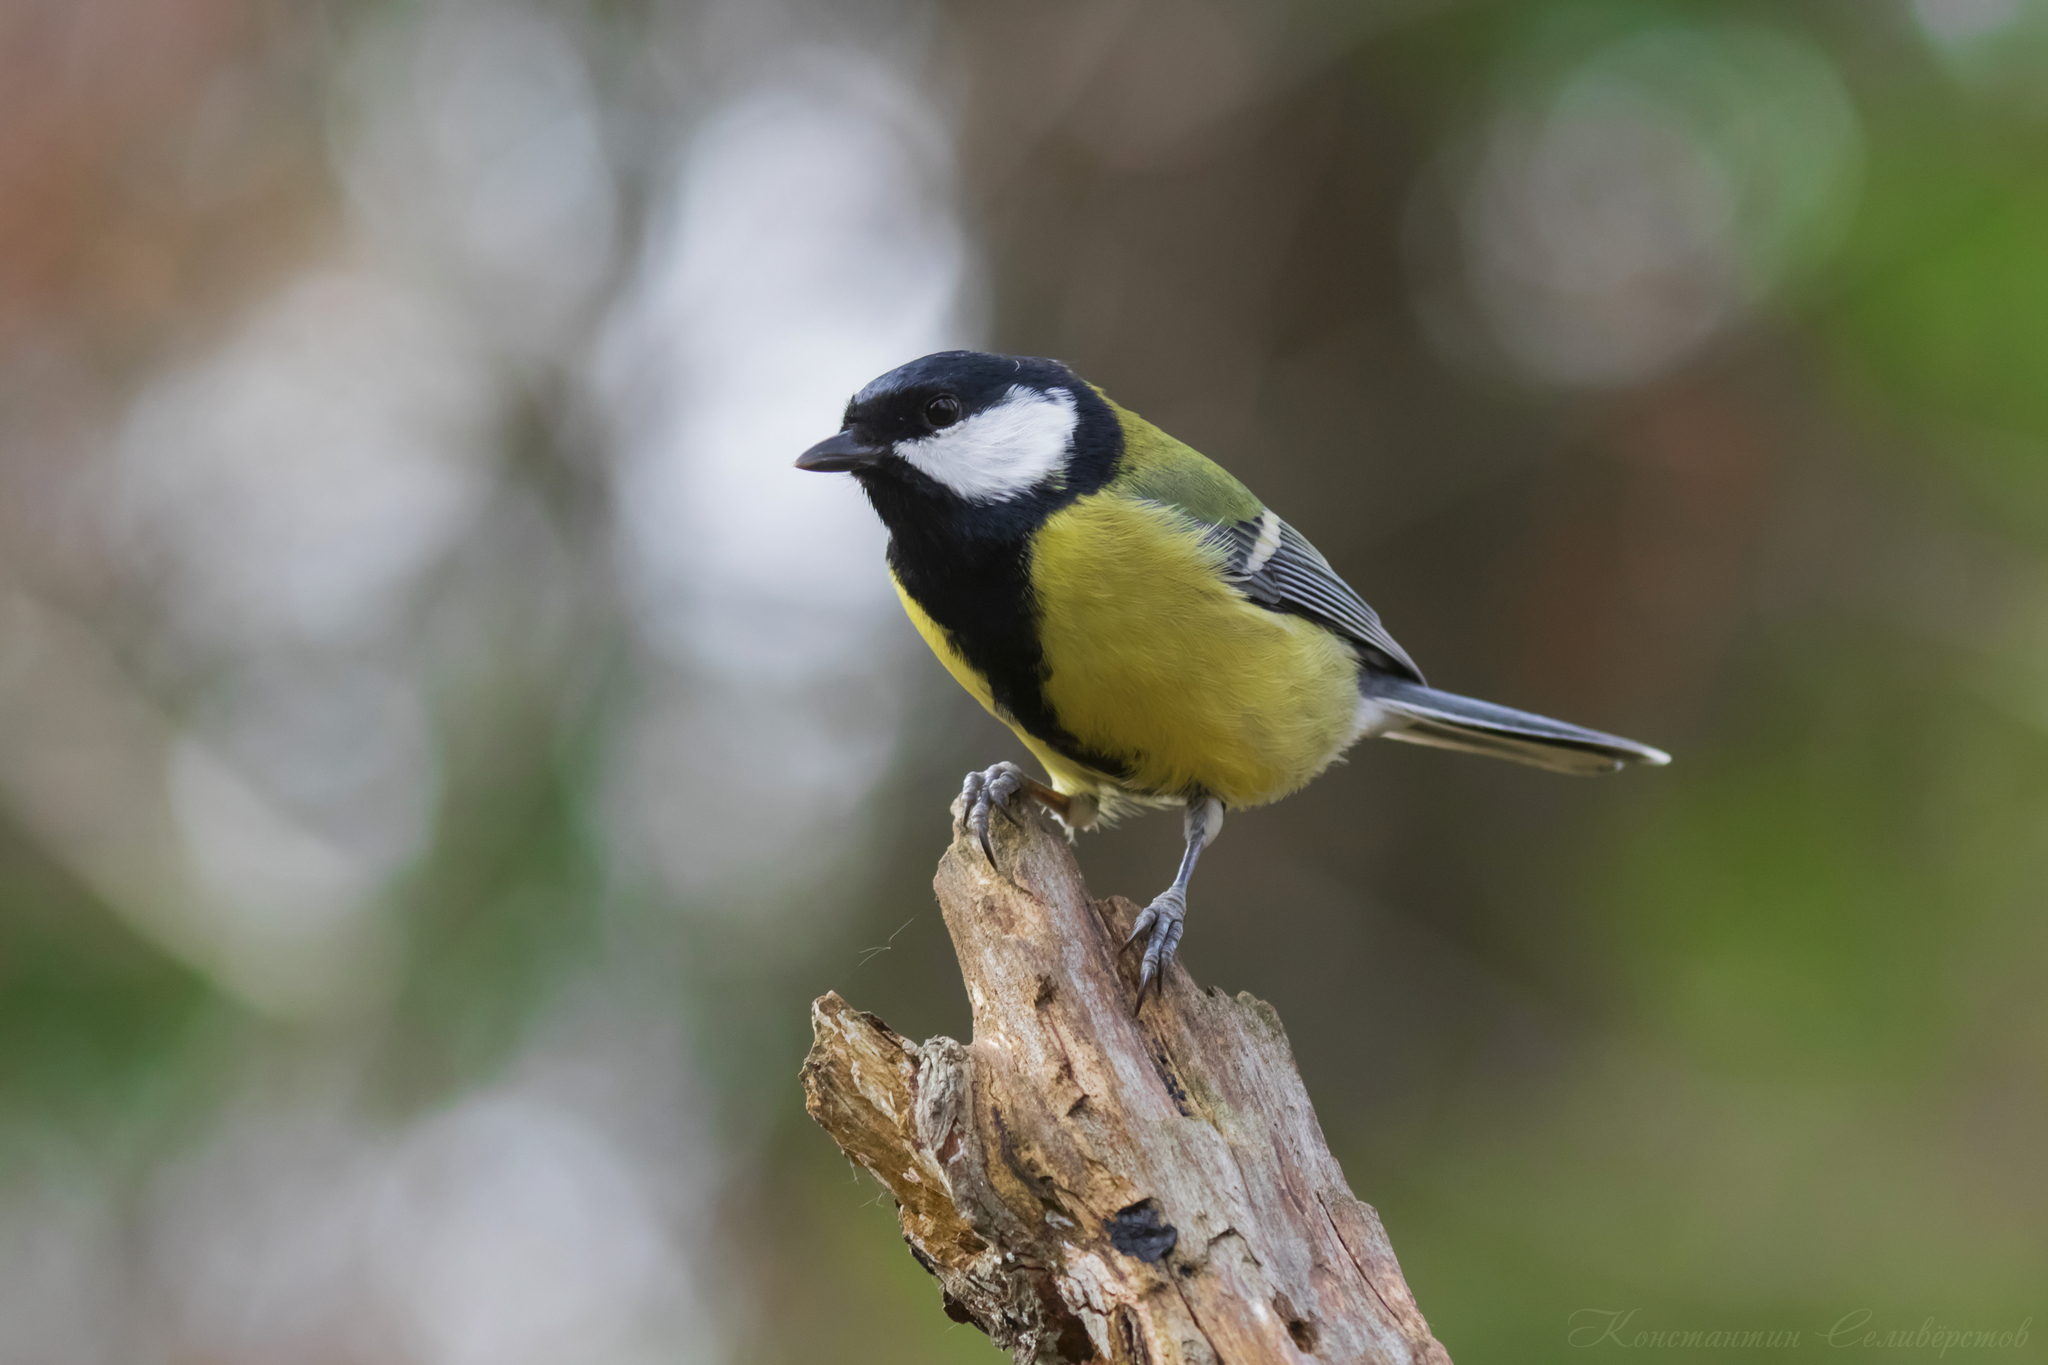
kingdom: Animalia
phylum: Chordata
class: Aves
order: Passeriformes
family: Paridae
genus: Parus
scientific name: Parus major
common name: Great tit
